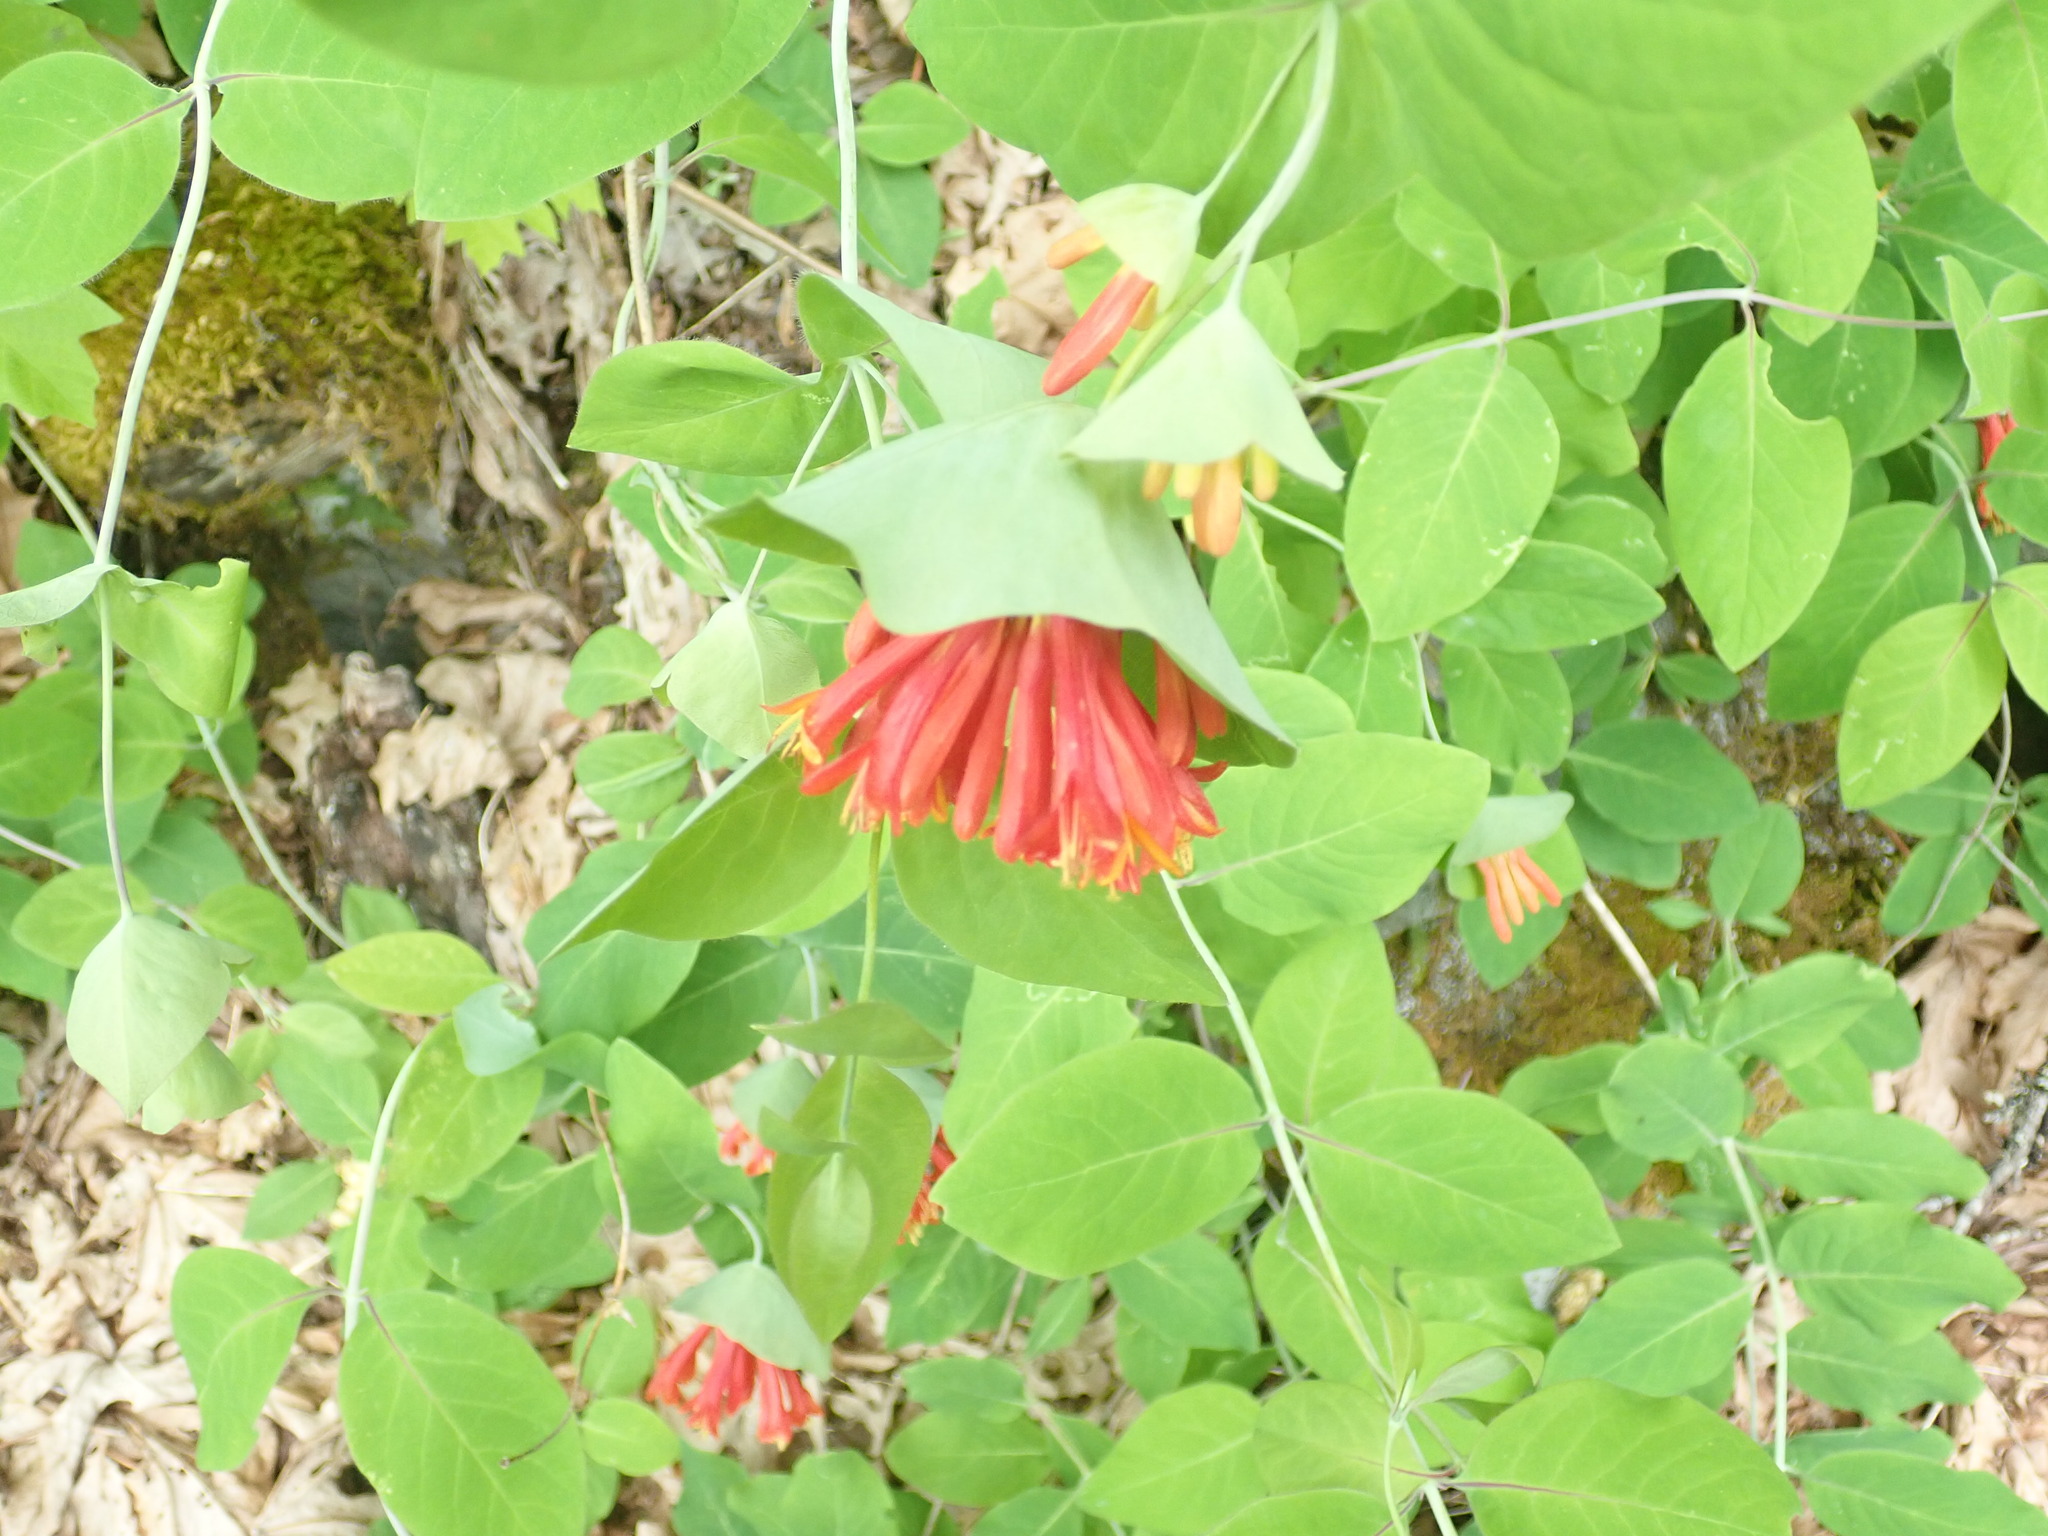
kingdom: Plantae
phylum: Tracheophyta
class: Magnoliopsida
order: Dipsacales
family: Caprifoliaceae
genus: Lonicera
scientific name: Lonicera ciliosa
